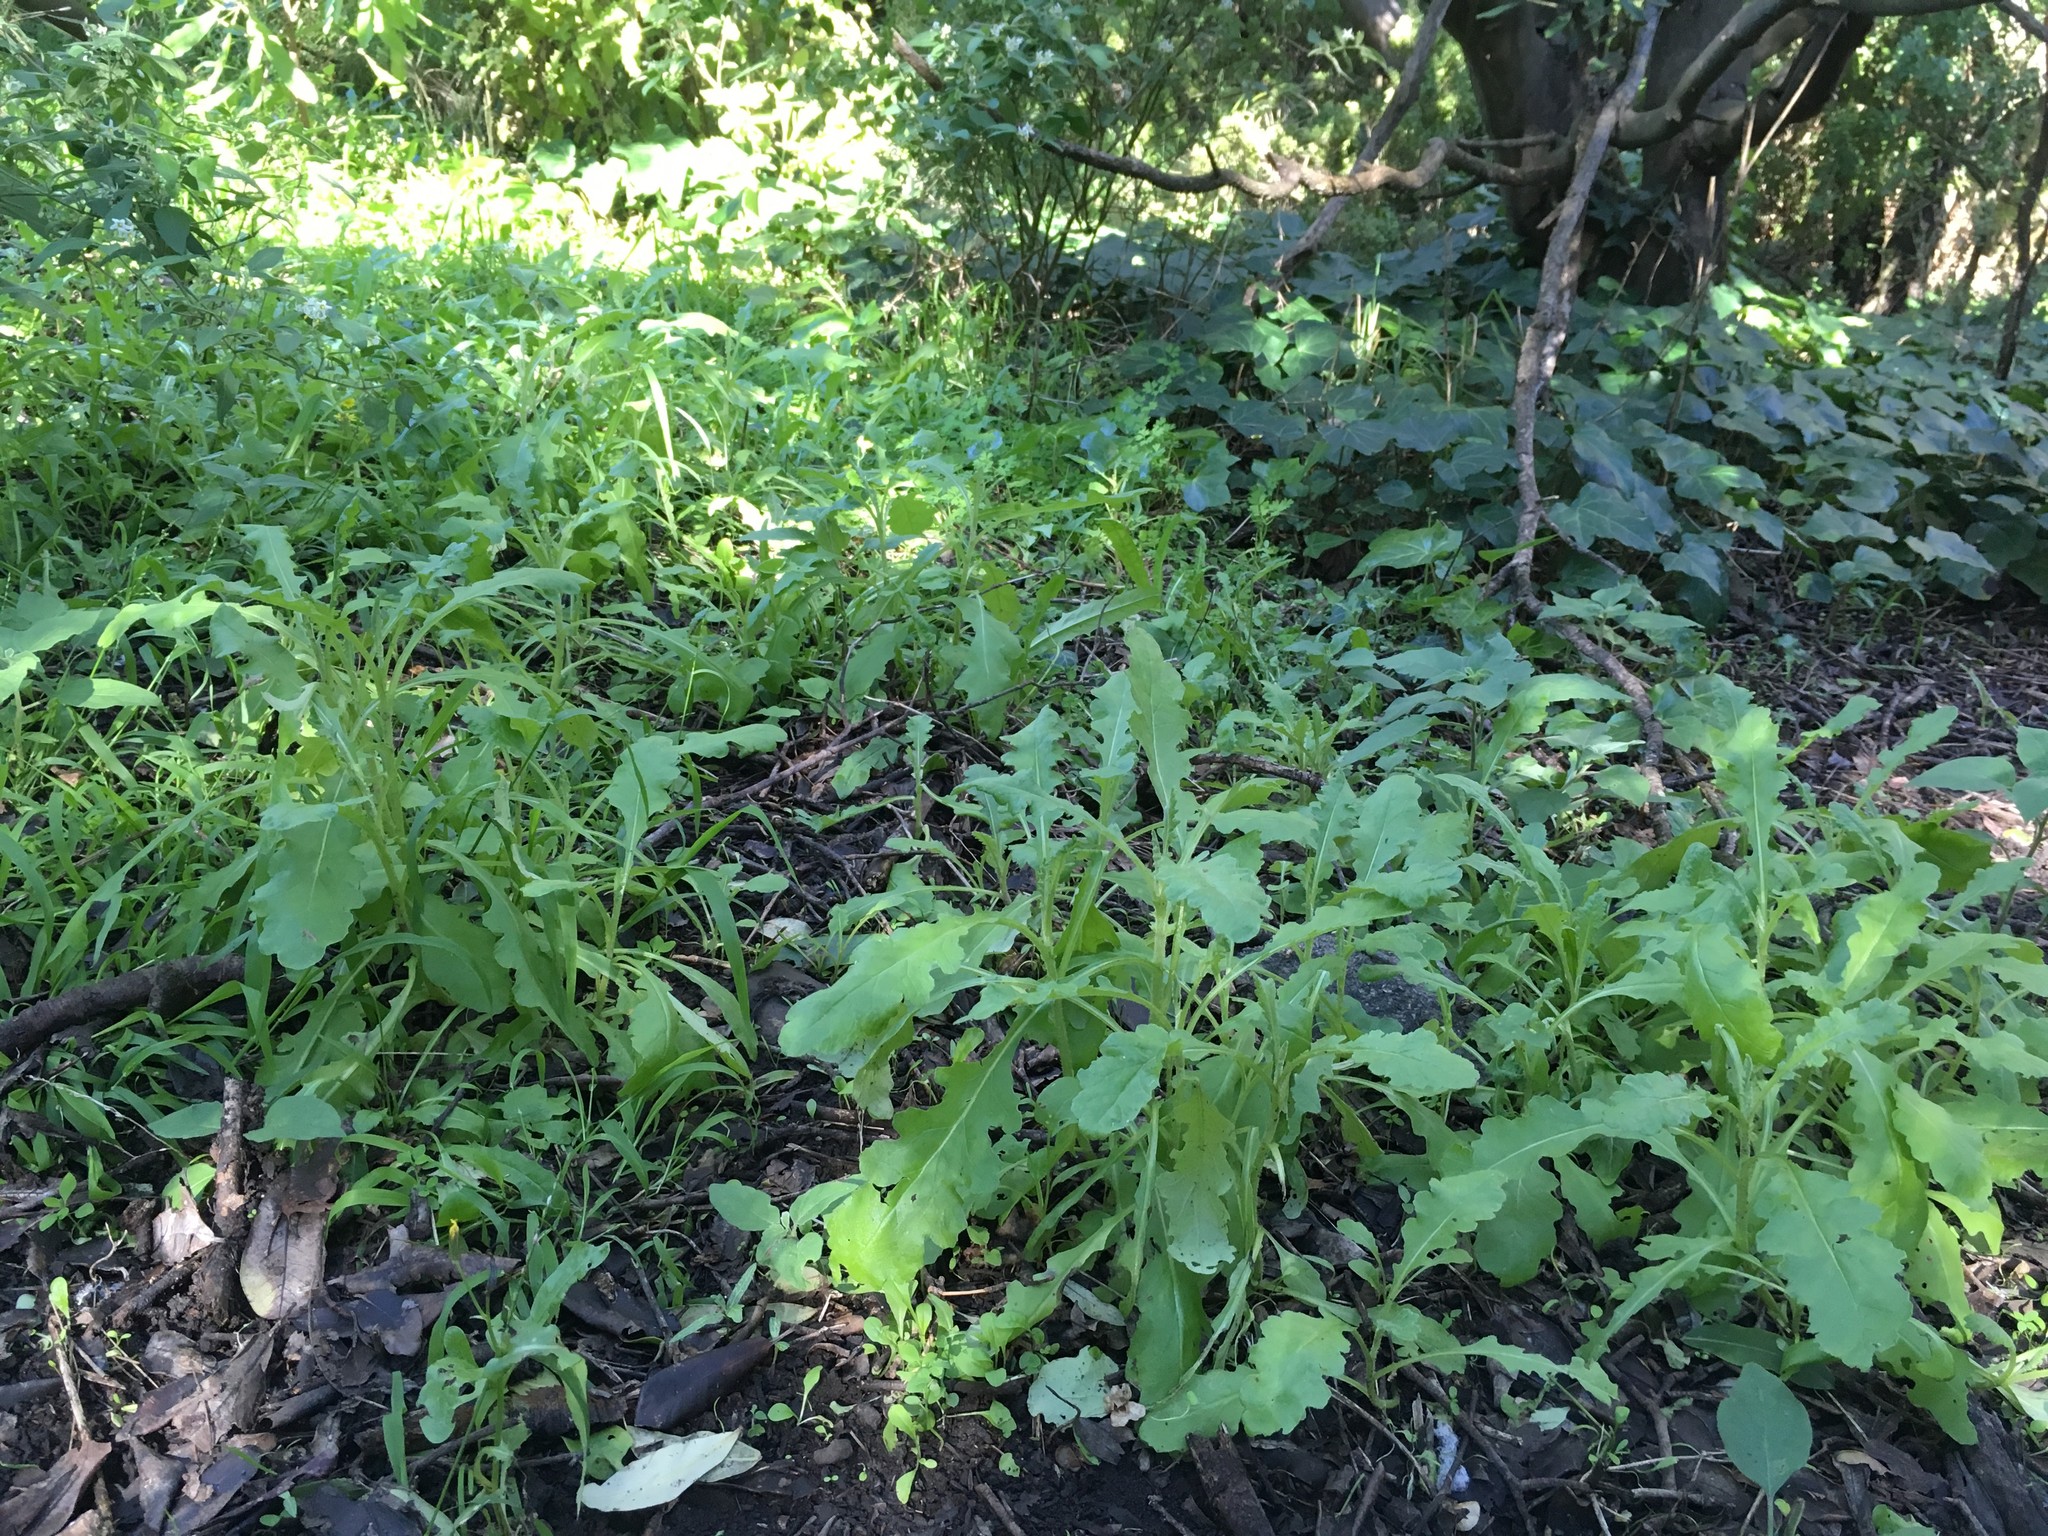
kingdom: Plantae
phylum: Tracheophyta
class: Magnoliopsida
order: Asterales
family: Asteraceae
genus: Senecio
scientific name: Senecio glomeratus
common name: Cutleaf burnweed
